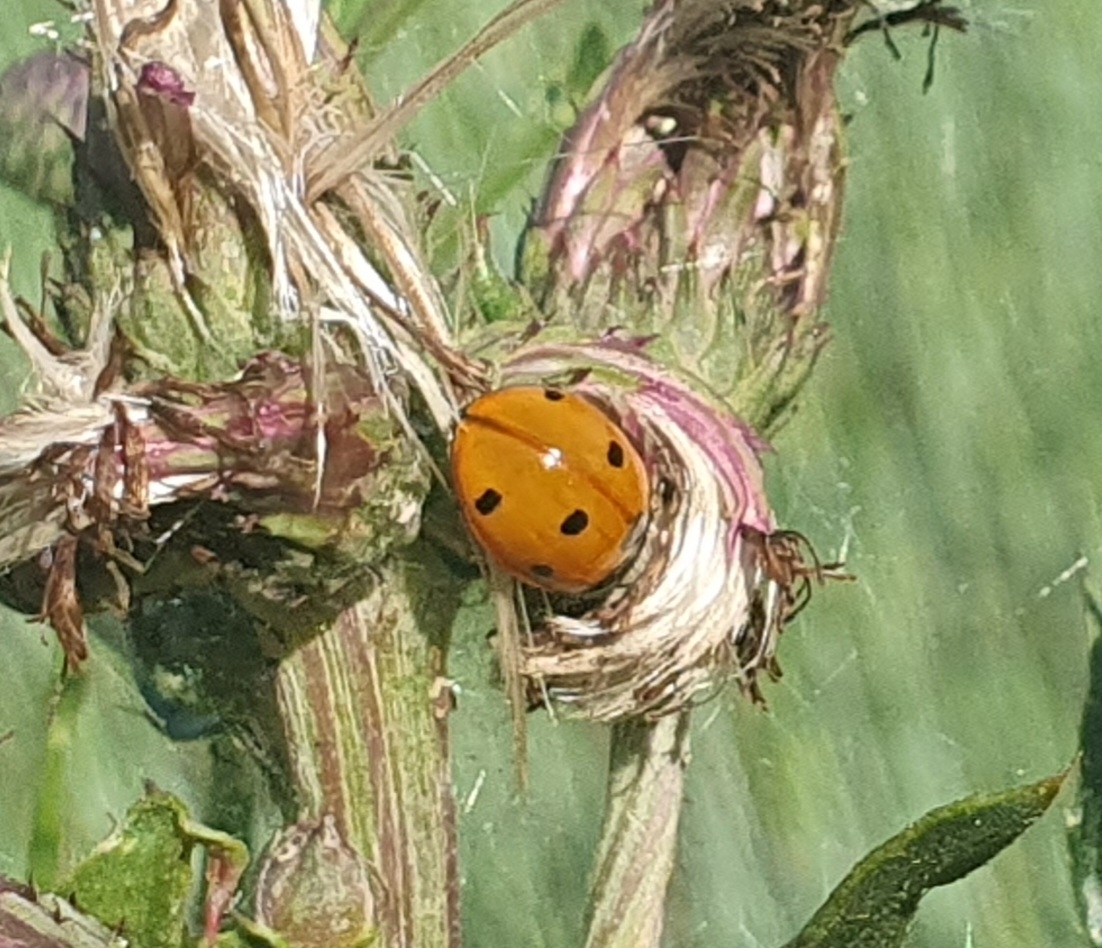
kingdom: Animalia
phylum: Arthropoda
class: Insecta
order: Coleoptera
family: Coccinellidae
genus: Coccinella
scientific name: Coccinella septempunctata
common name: Sevenspotted lady beetle
